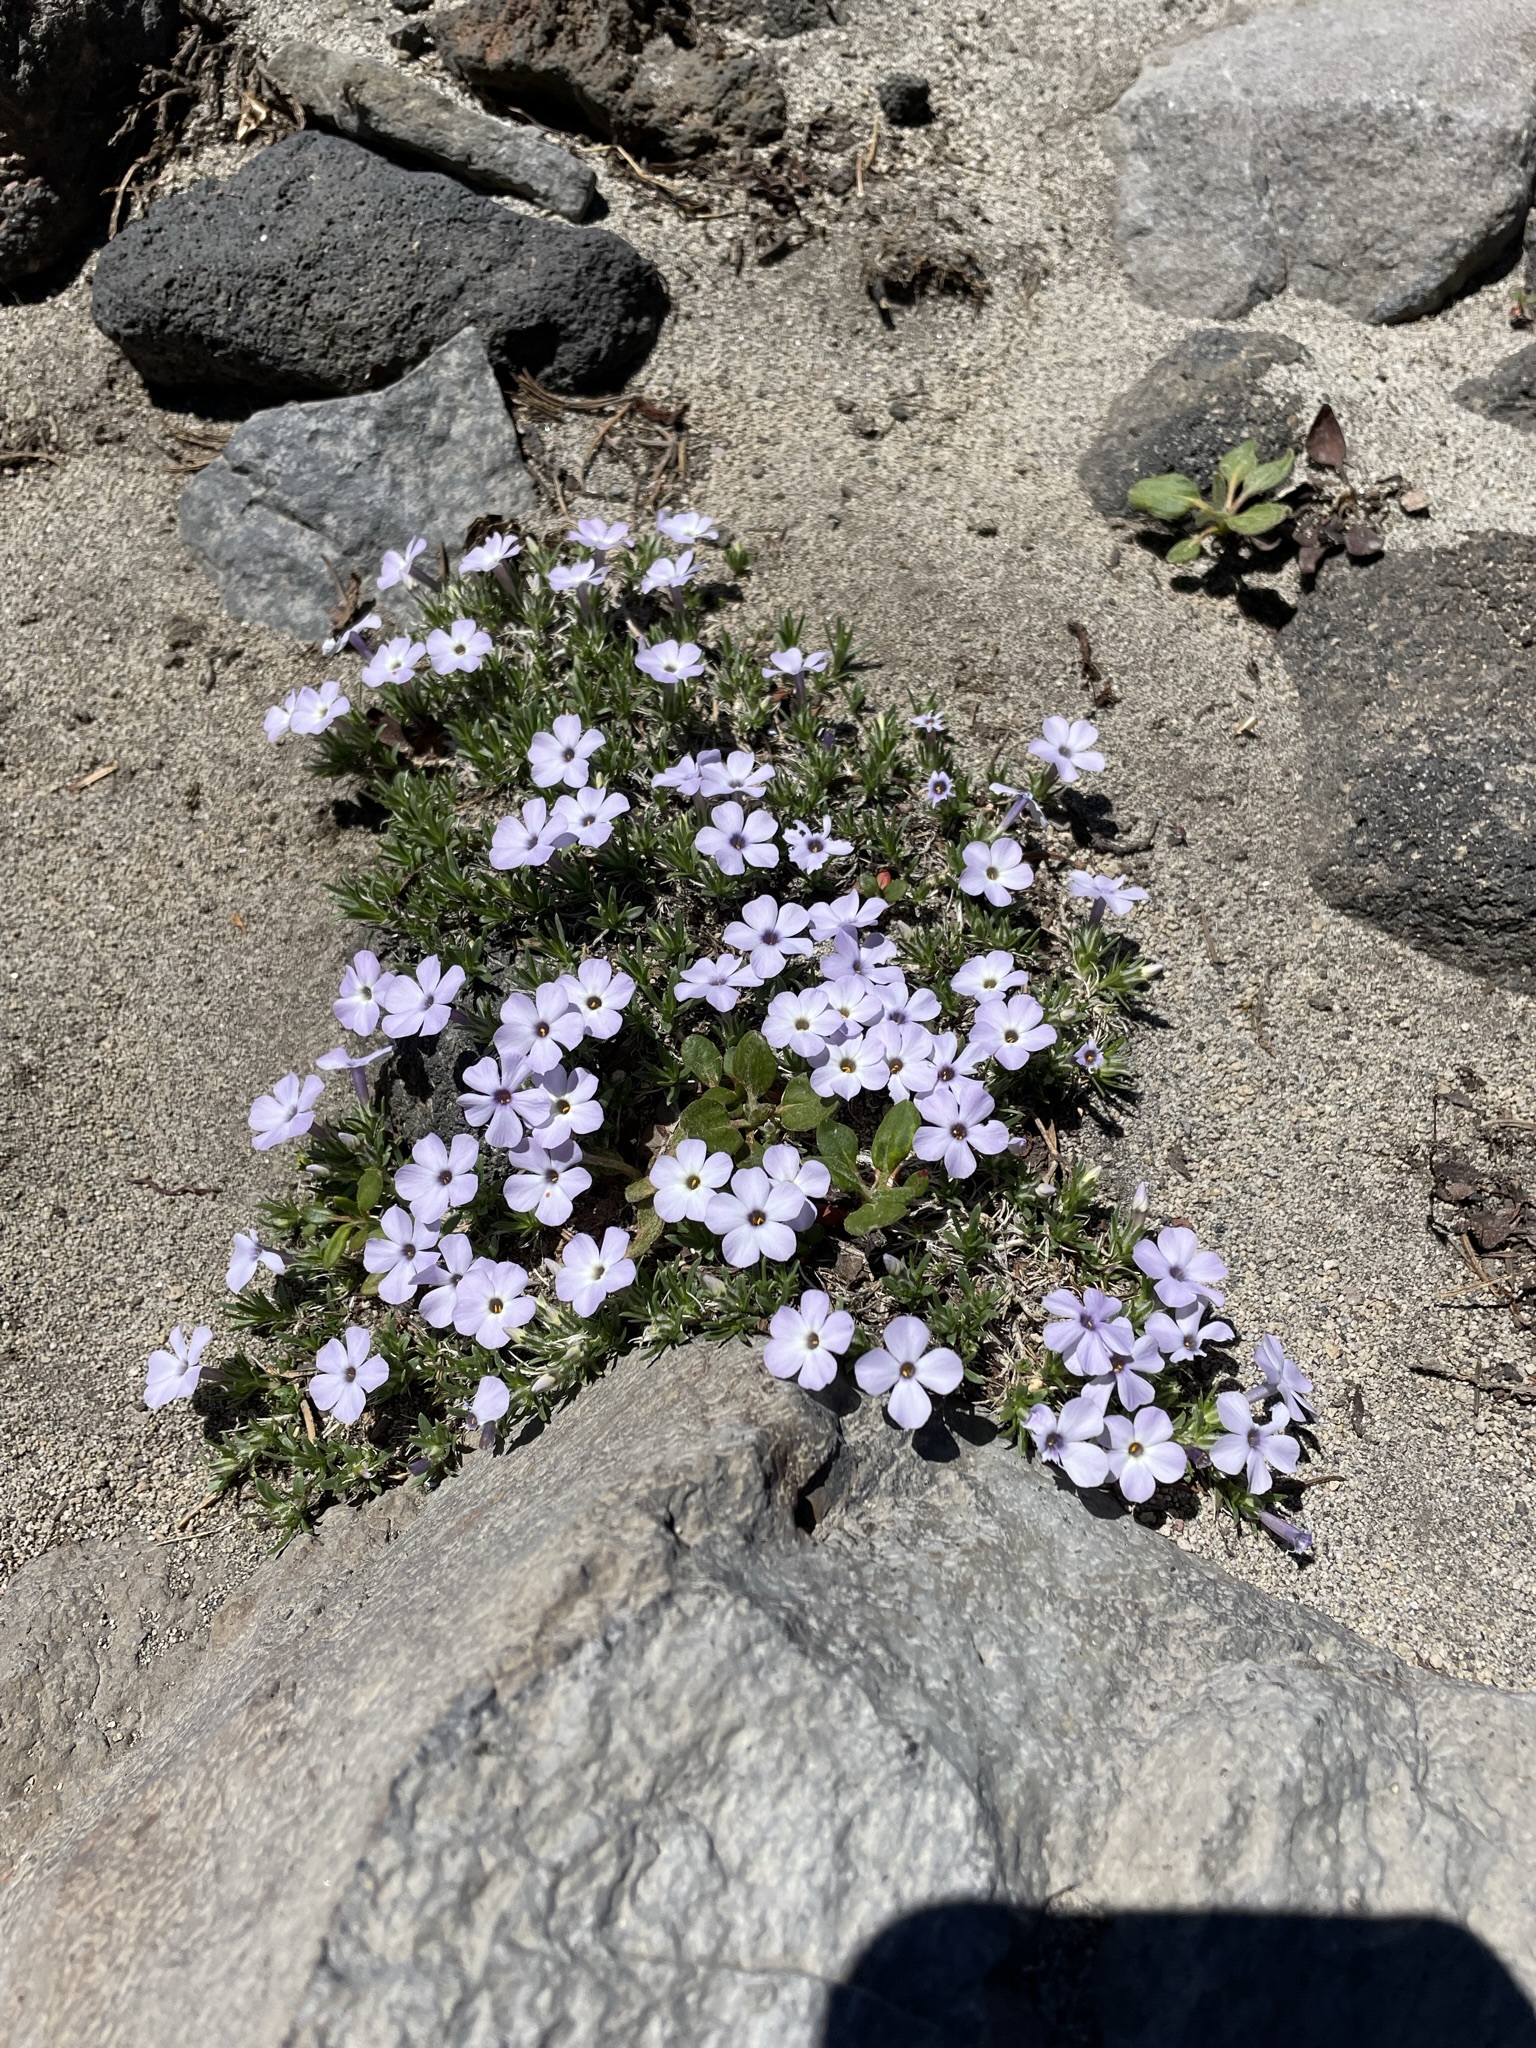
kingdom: Plantae
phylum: Tracheophyta
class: Magnoliopsida
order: Ericales
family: Polemoniaceae
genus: Phlox
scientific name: Phlox diffusa
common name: Mat phlox
